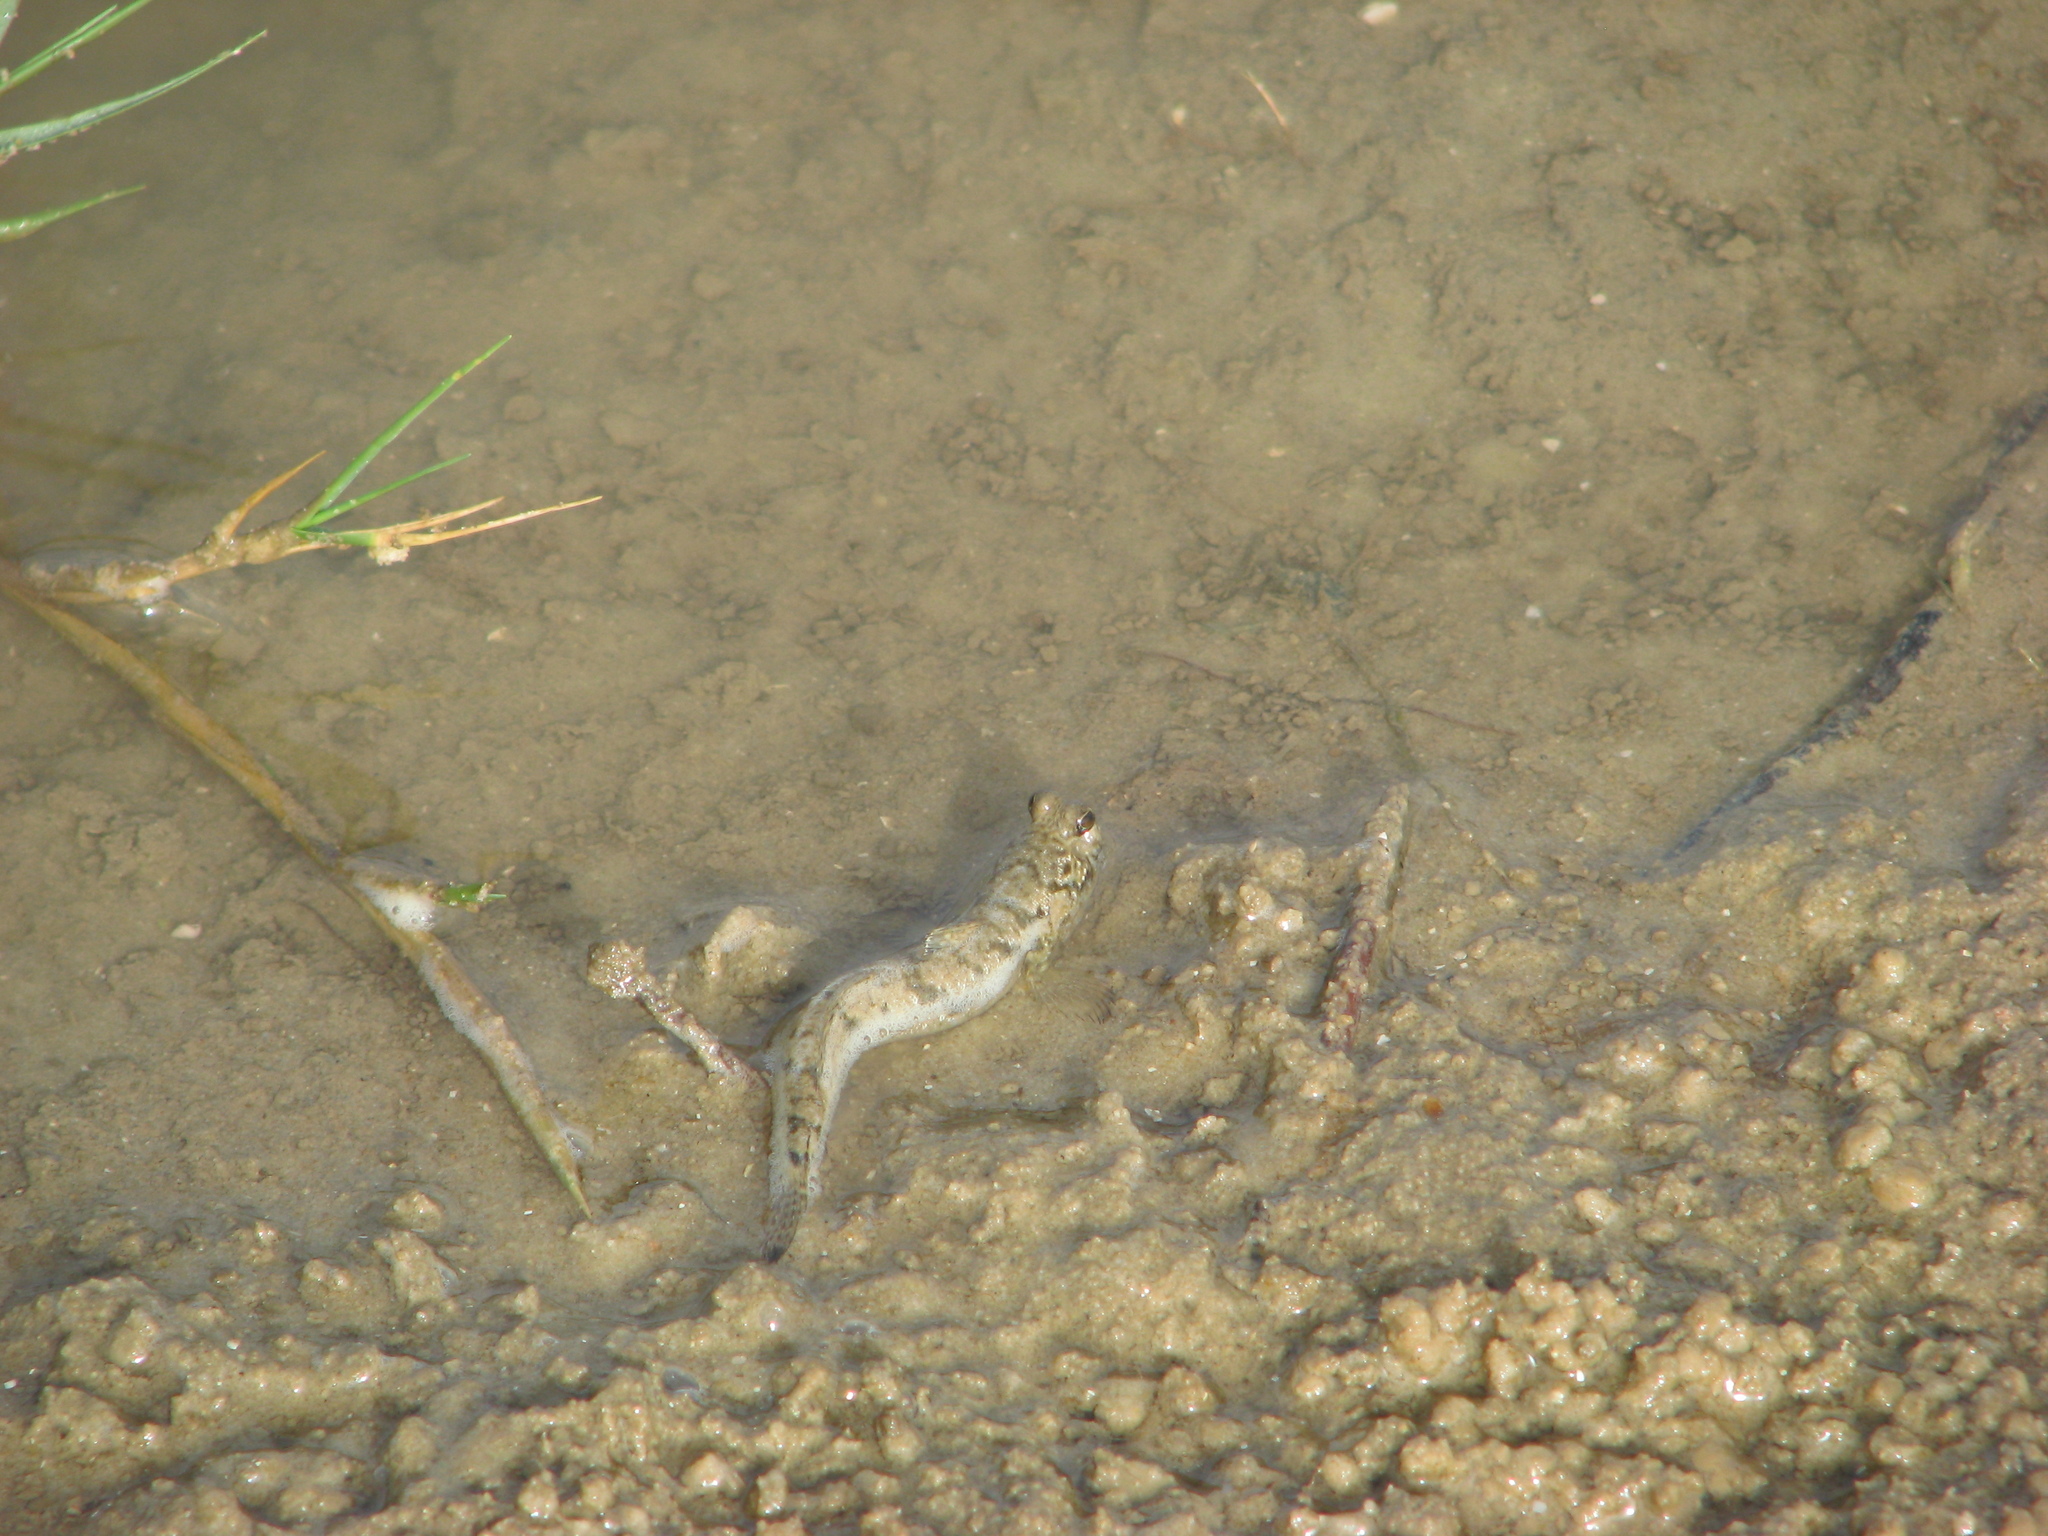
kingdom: Animalia
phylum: Chordata
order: Perciformes
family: Gobiidae
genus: Periophthalmus
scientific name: Periophthalmus barbarus
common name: Atlantic mudskipper
